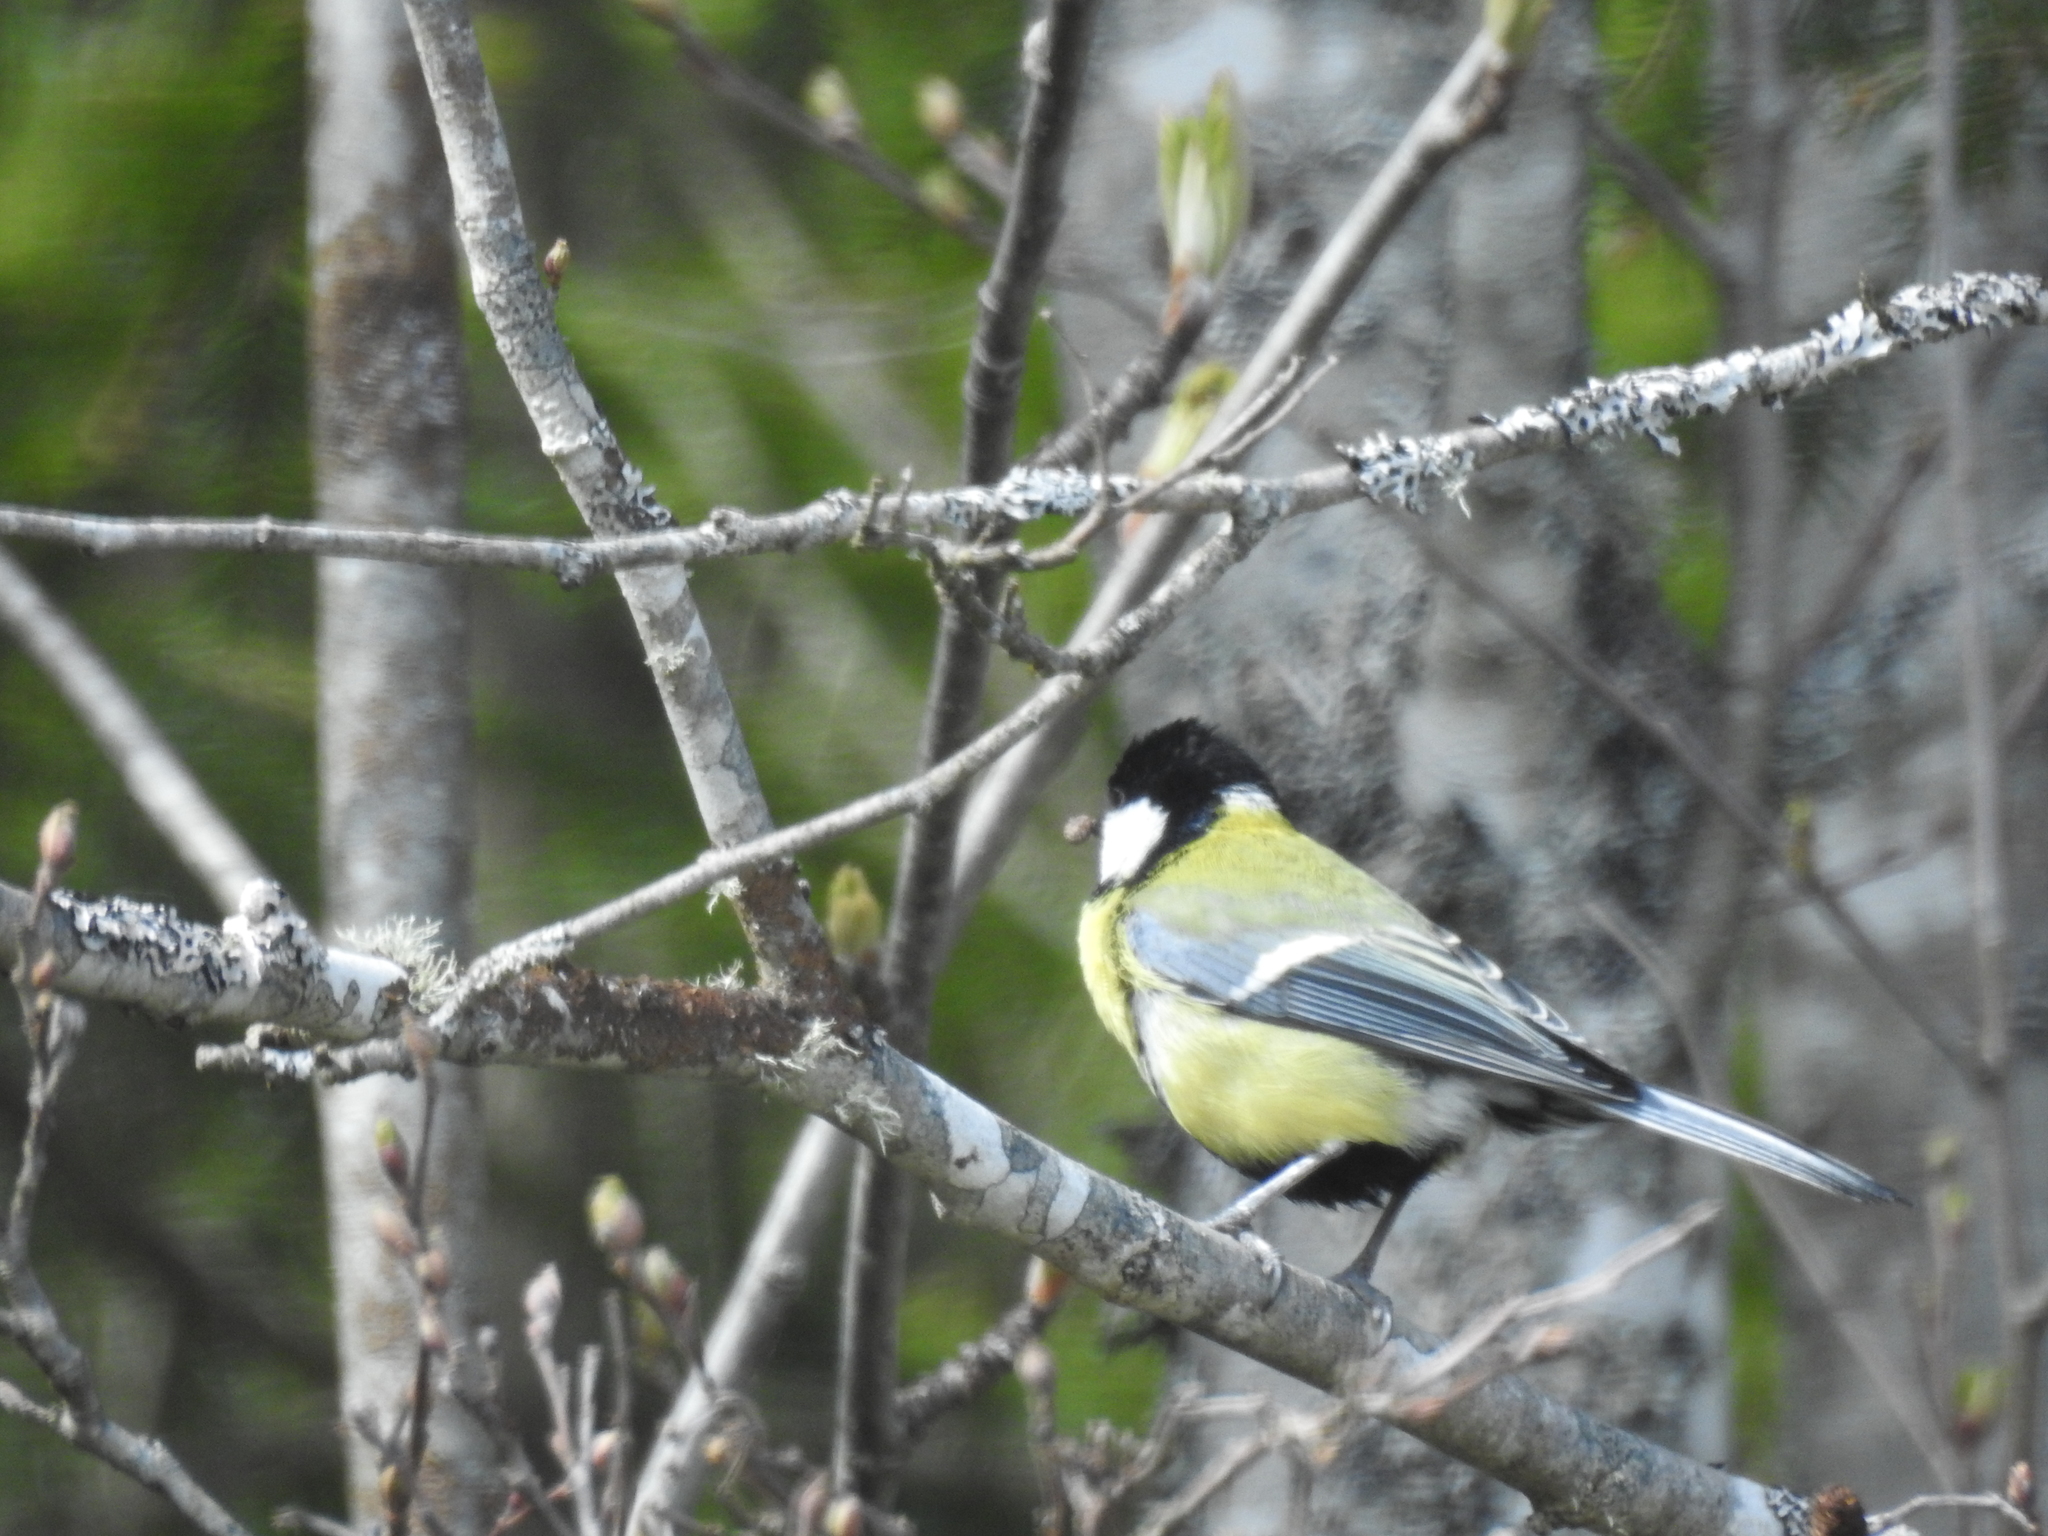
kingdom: Animalia
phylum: Chordata
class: Aves
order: Passeriformes
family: Paridae
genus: Parus
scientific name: Parus major
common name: Great tit
